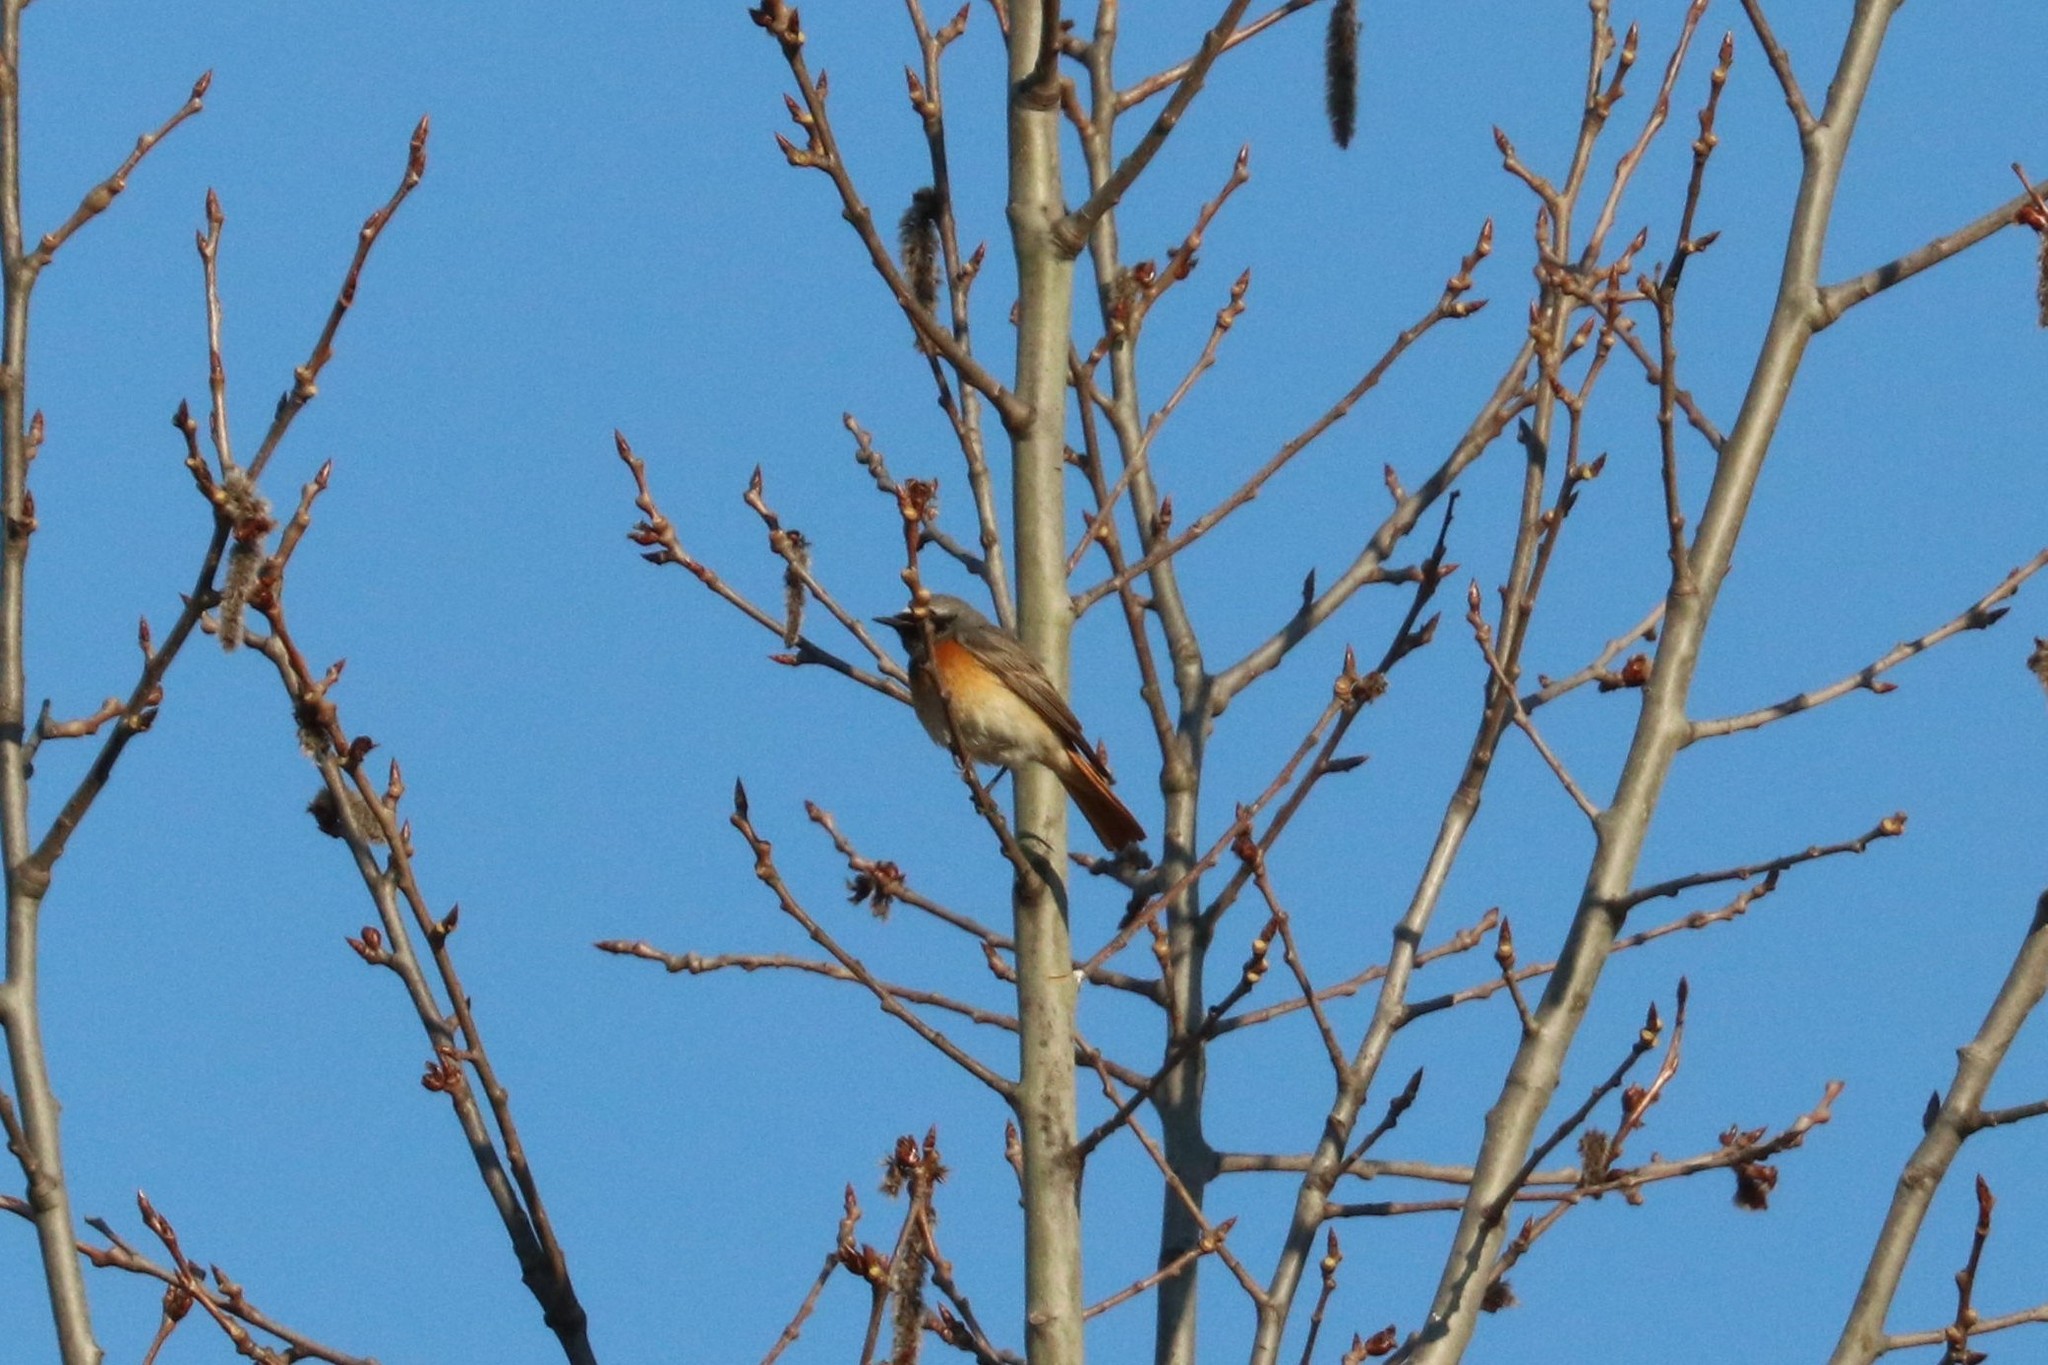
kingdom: Animalia
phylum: Chordata
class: Aves
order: Passeriformes
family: Muscicapidae
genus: Phoenicurus
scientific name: Phoenicurus phoenicurus
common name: Common redstart
